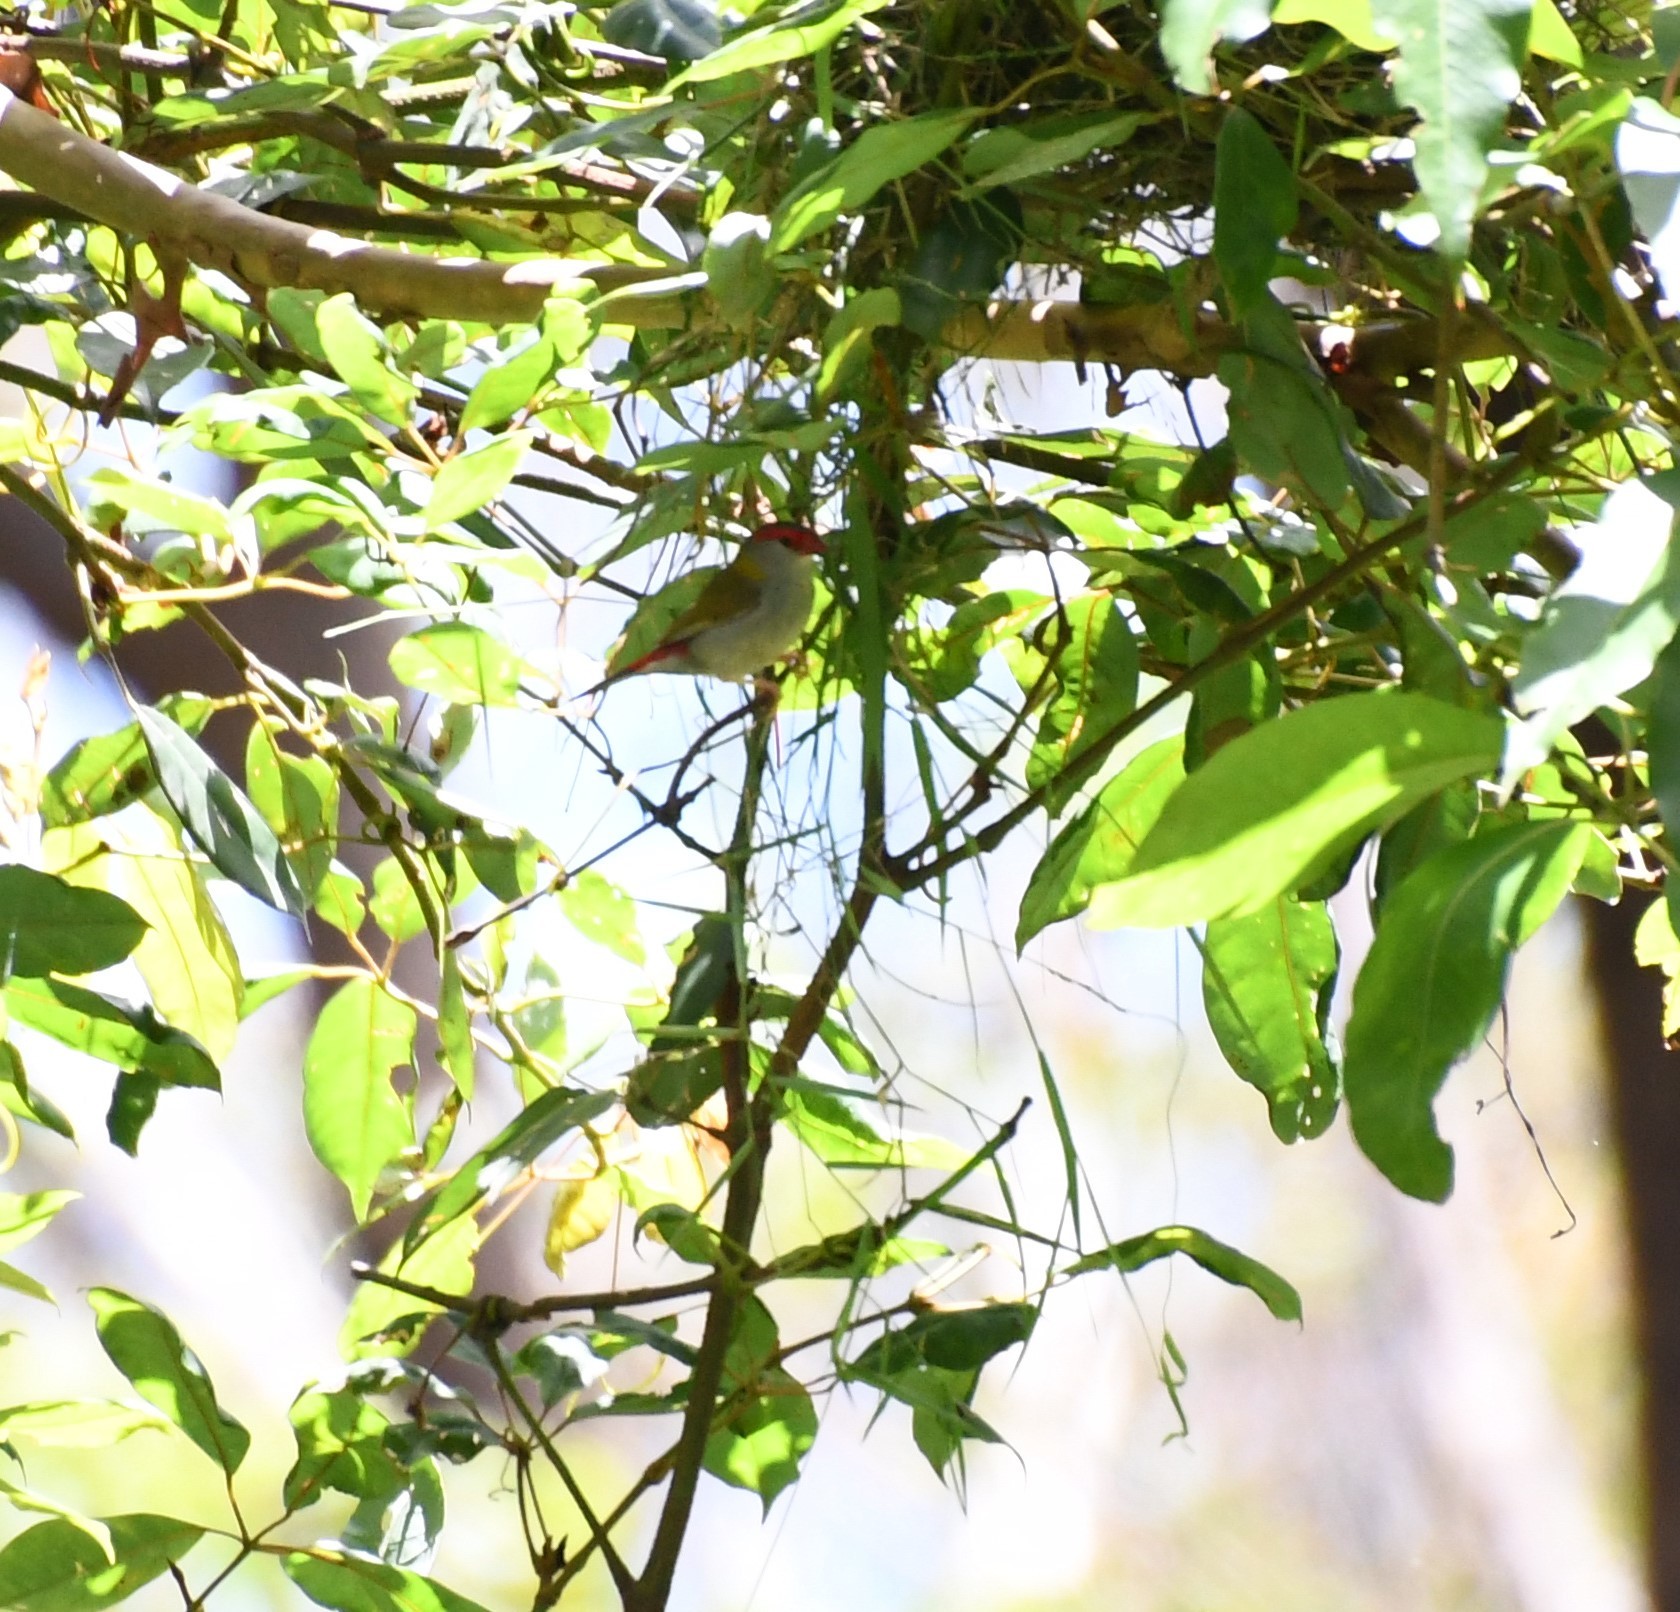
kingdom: Animalia
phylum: Chordata
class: Aves
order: Passeriformes
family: Estrildidae
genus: Neochmia
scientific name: Neochmia temporalis
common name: Red-browed finch
